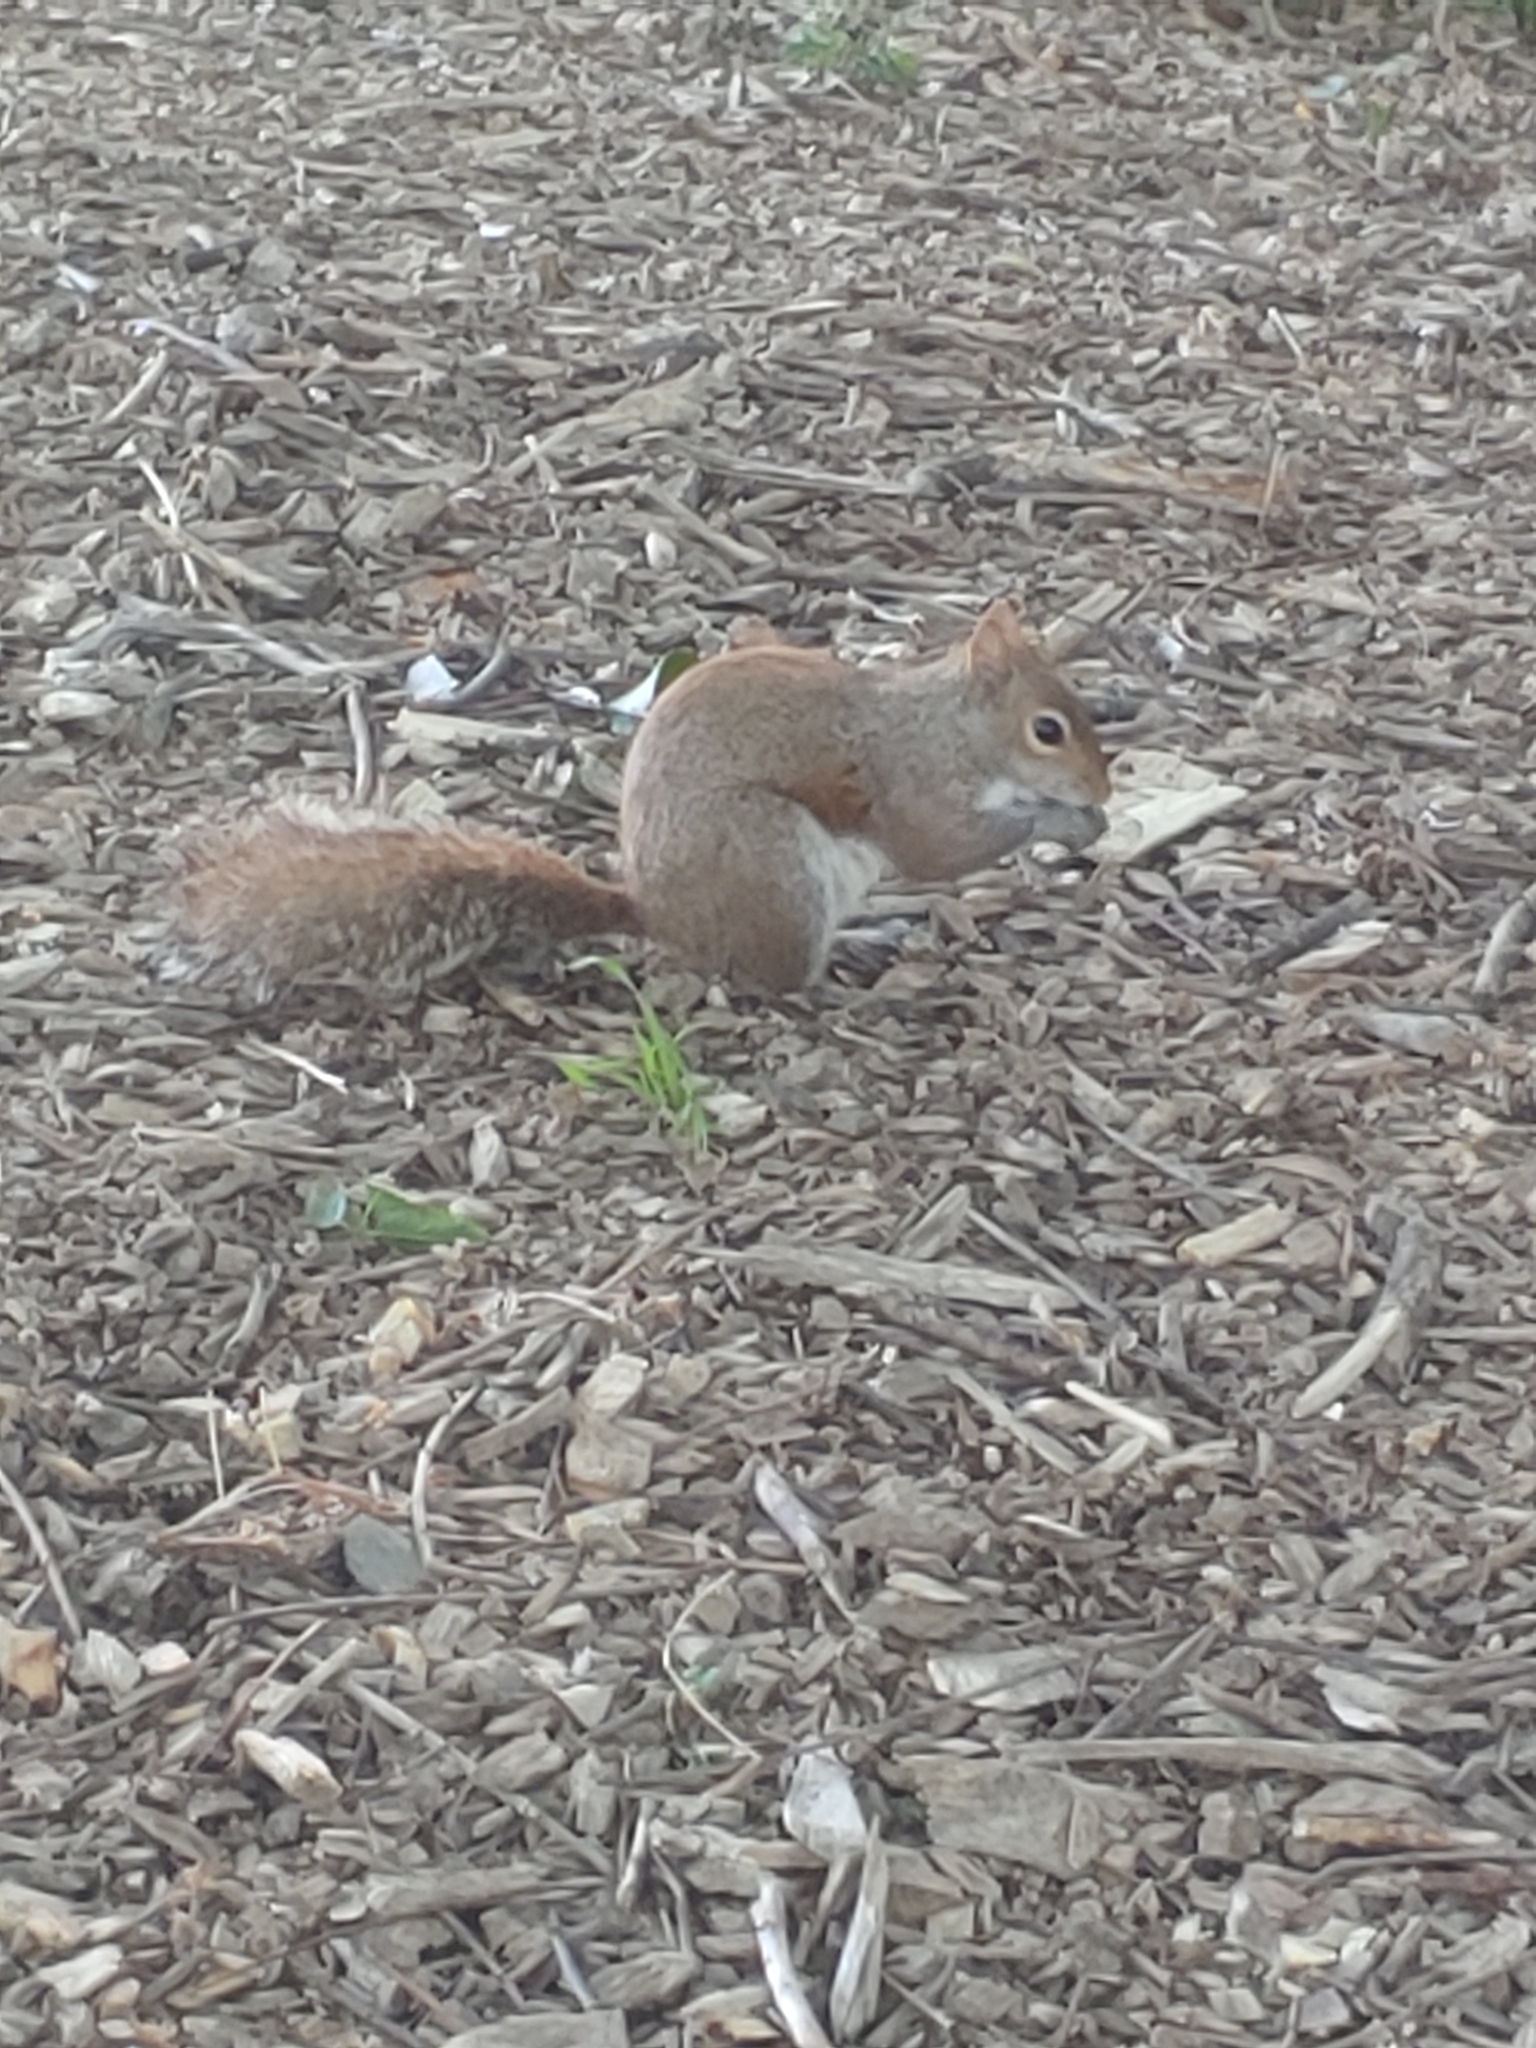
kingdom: Animalia
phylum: Chordata
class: Mammalia
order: Rodentia
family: Sciuridae
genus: Sciurus
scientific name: Sciurus carolinensis
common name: Eastern gray squirrel
